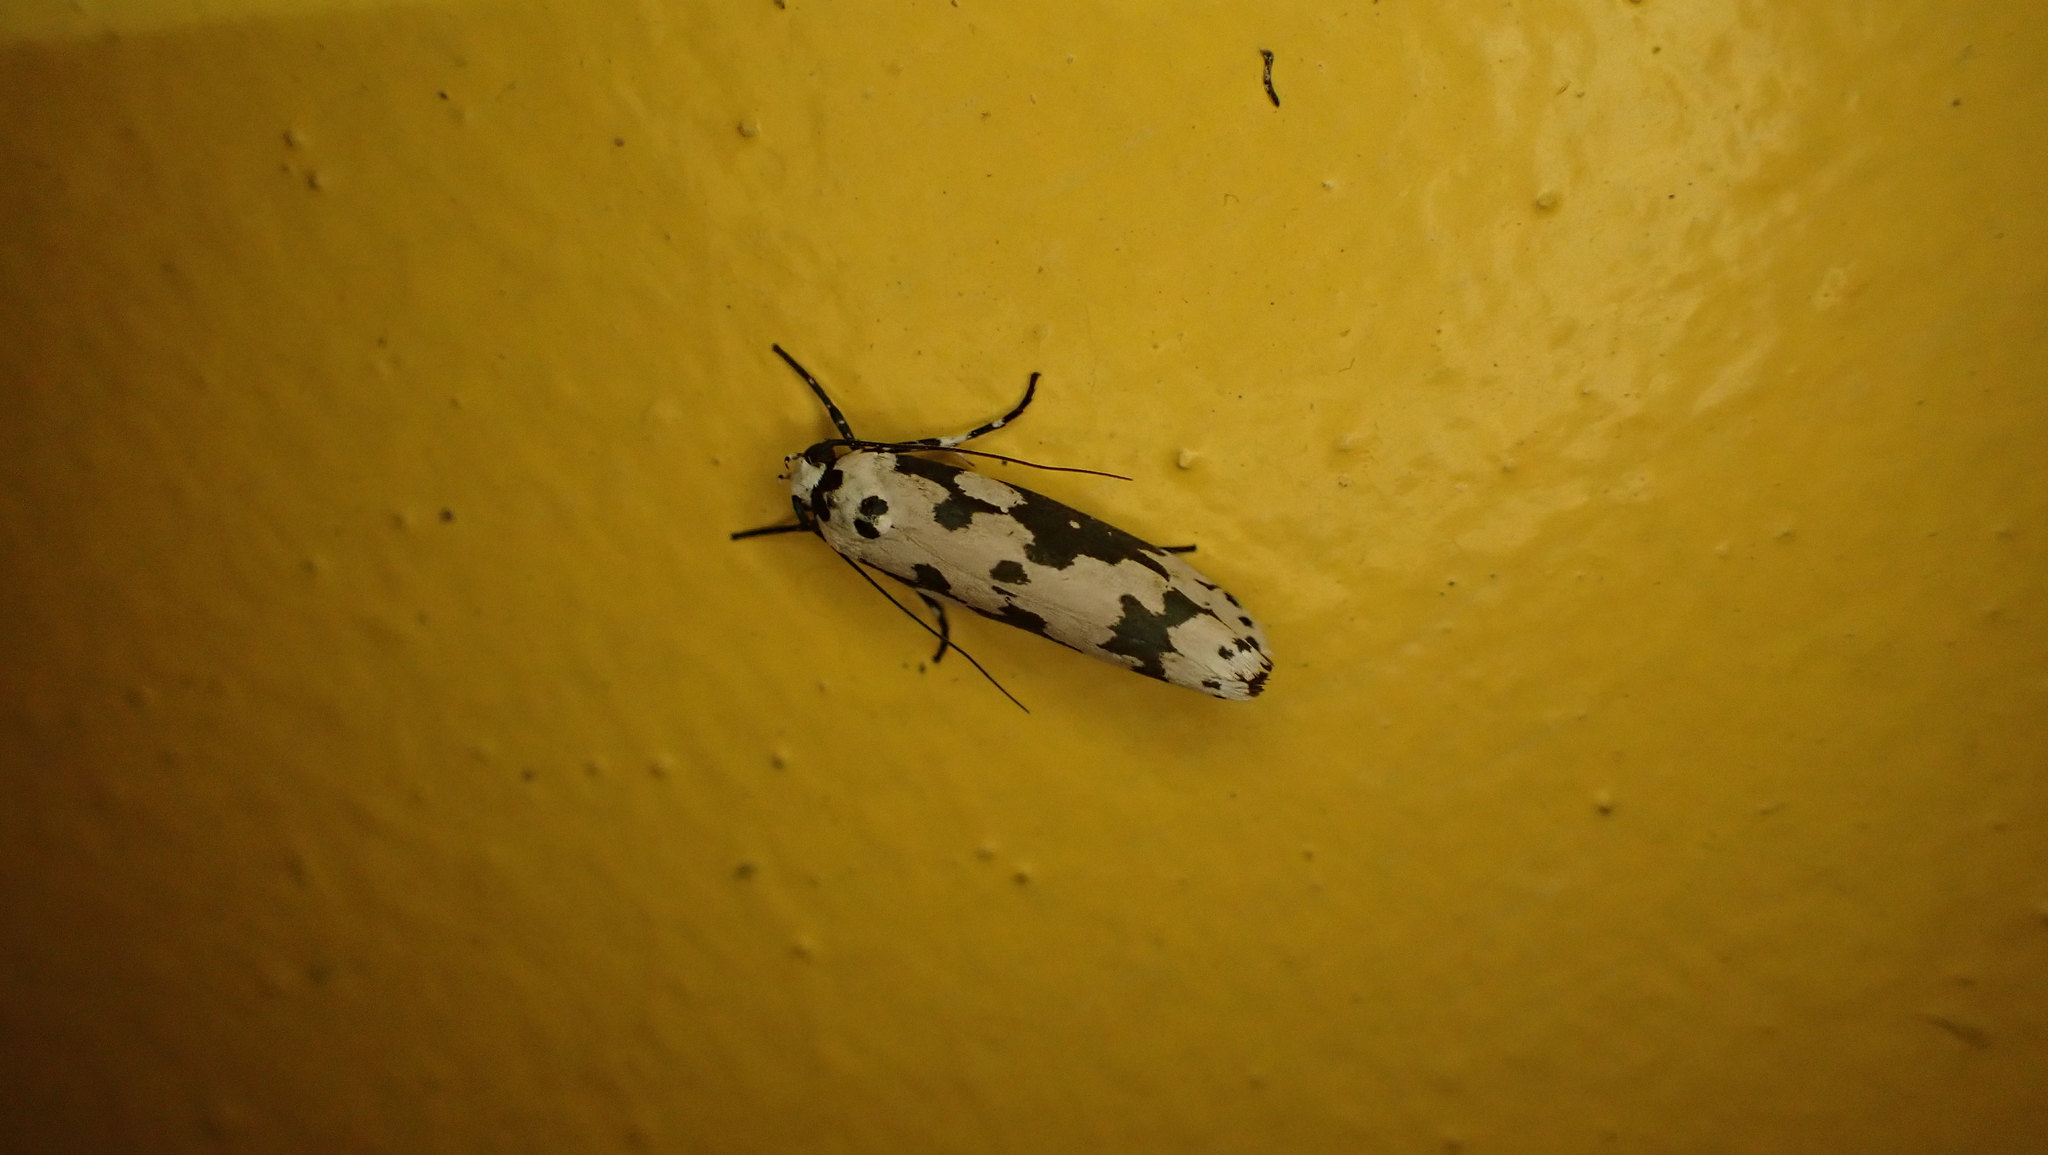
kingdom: Animalia
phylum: Arthropoda
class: Insecta
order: Lepidoptera
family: Ethmiidae
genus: Ethmia
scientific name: Ethmia stephenrumseyi
